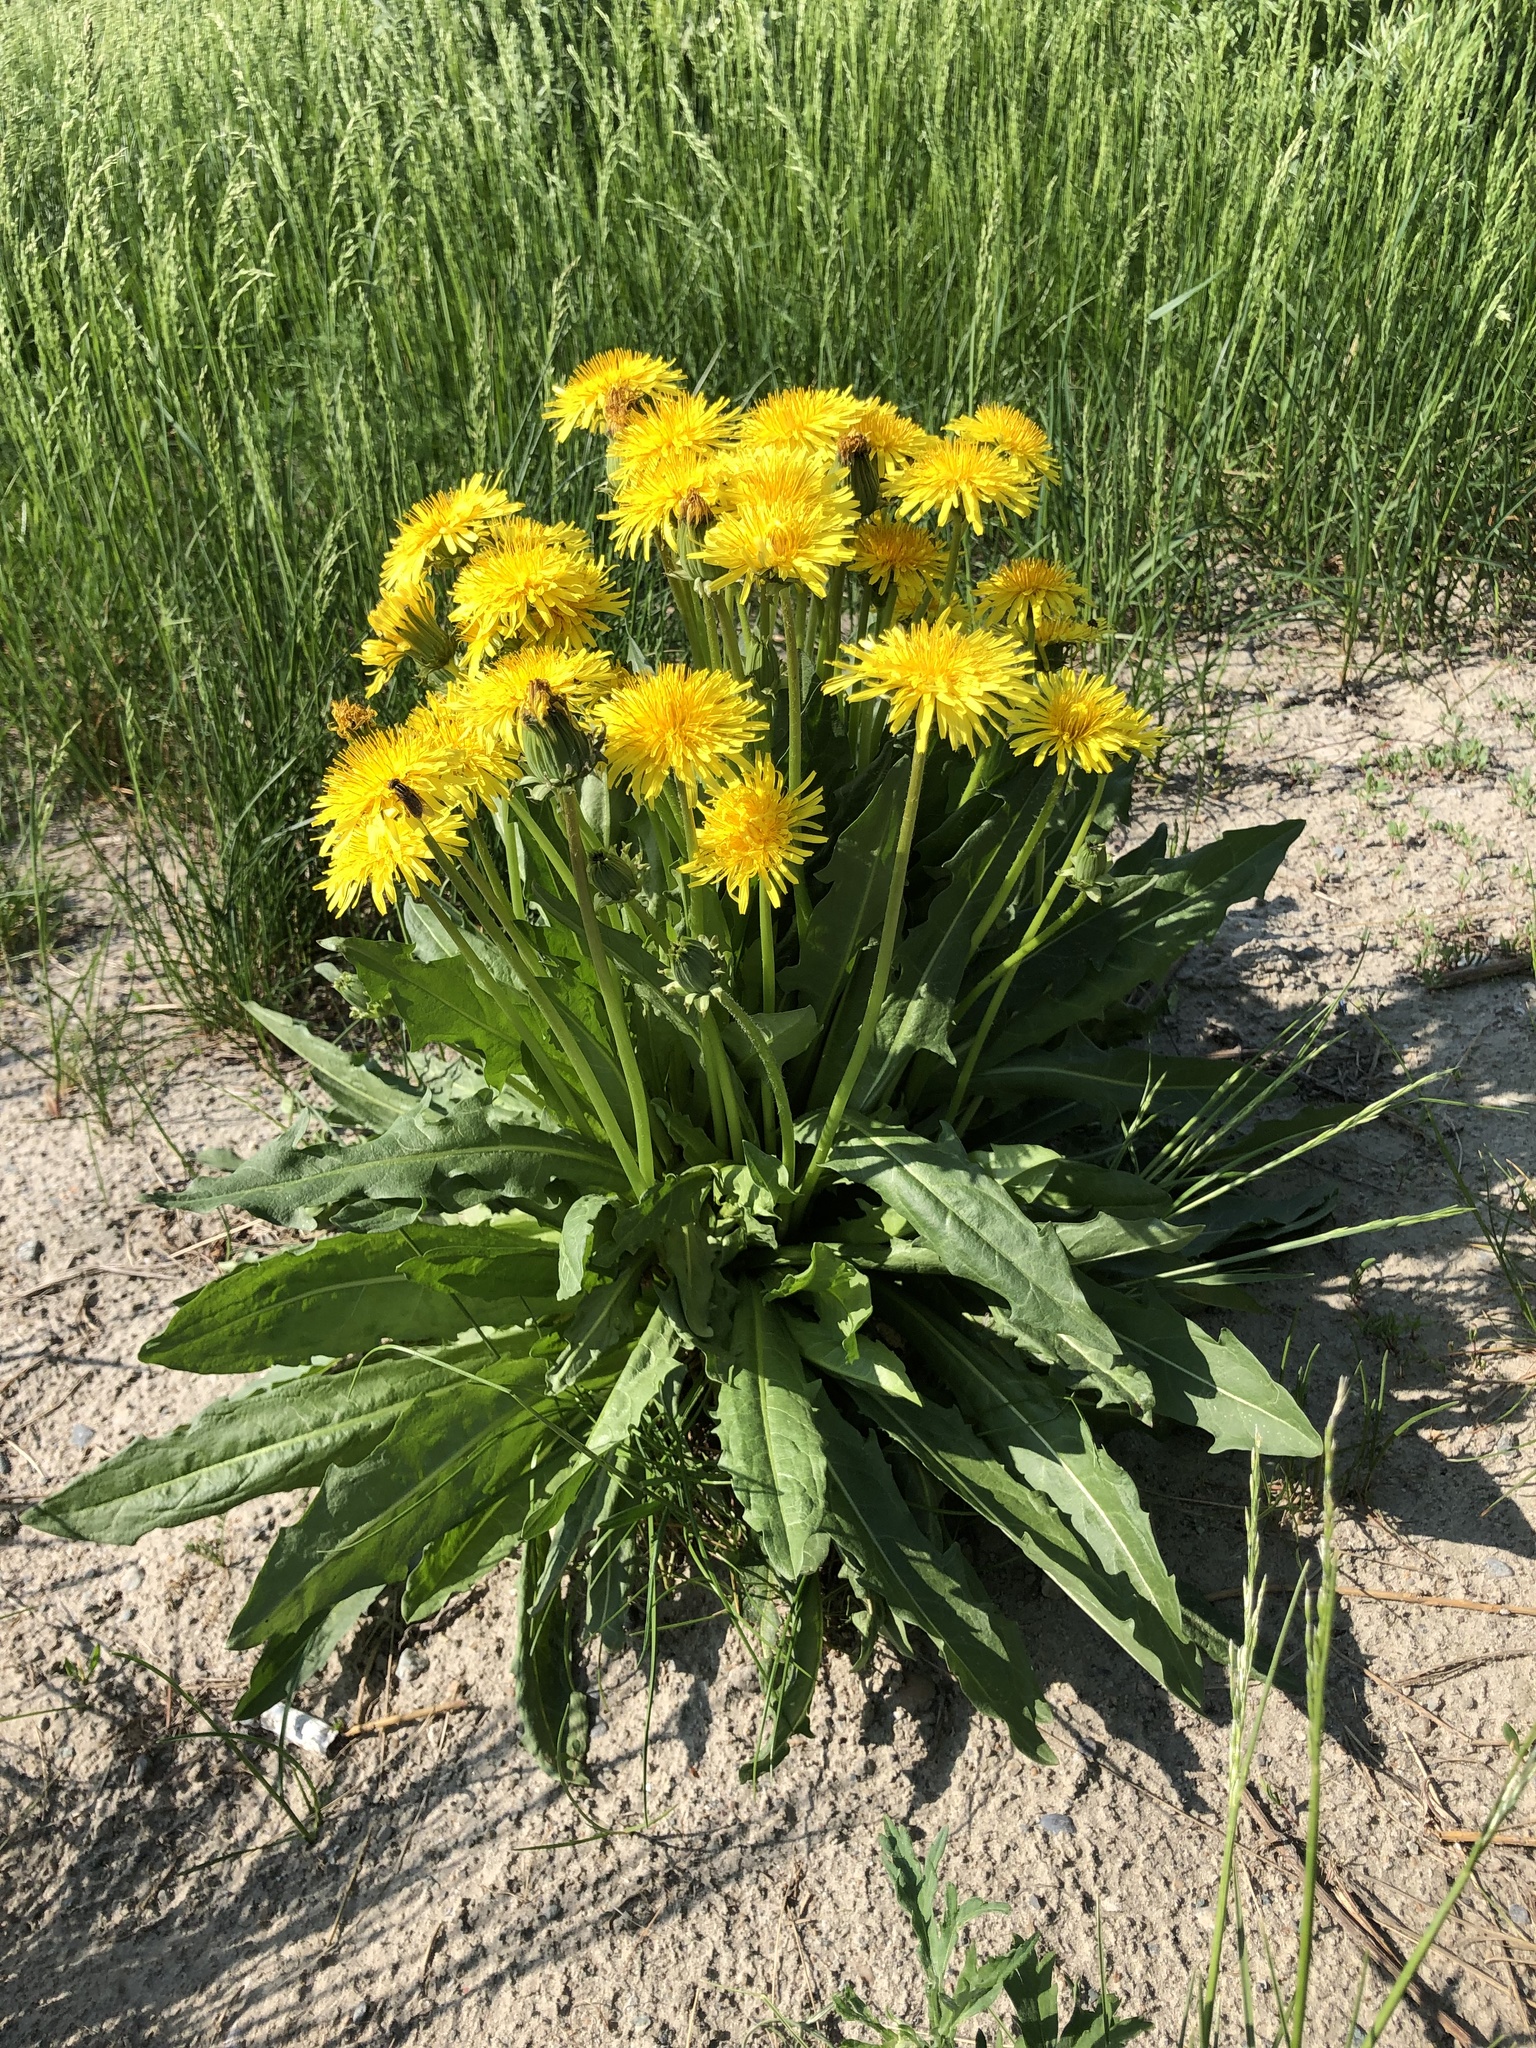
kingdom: Plantae
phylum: Tracheophyta
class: Magnoliopsida
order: Asterales
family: Asteraceae
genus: Taraxacum
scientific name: Taraxacum officinale
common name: Common dandelion
